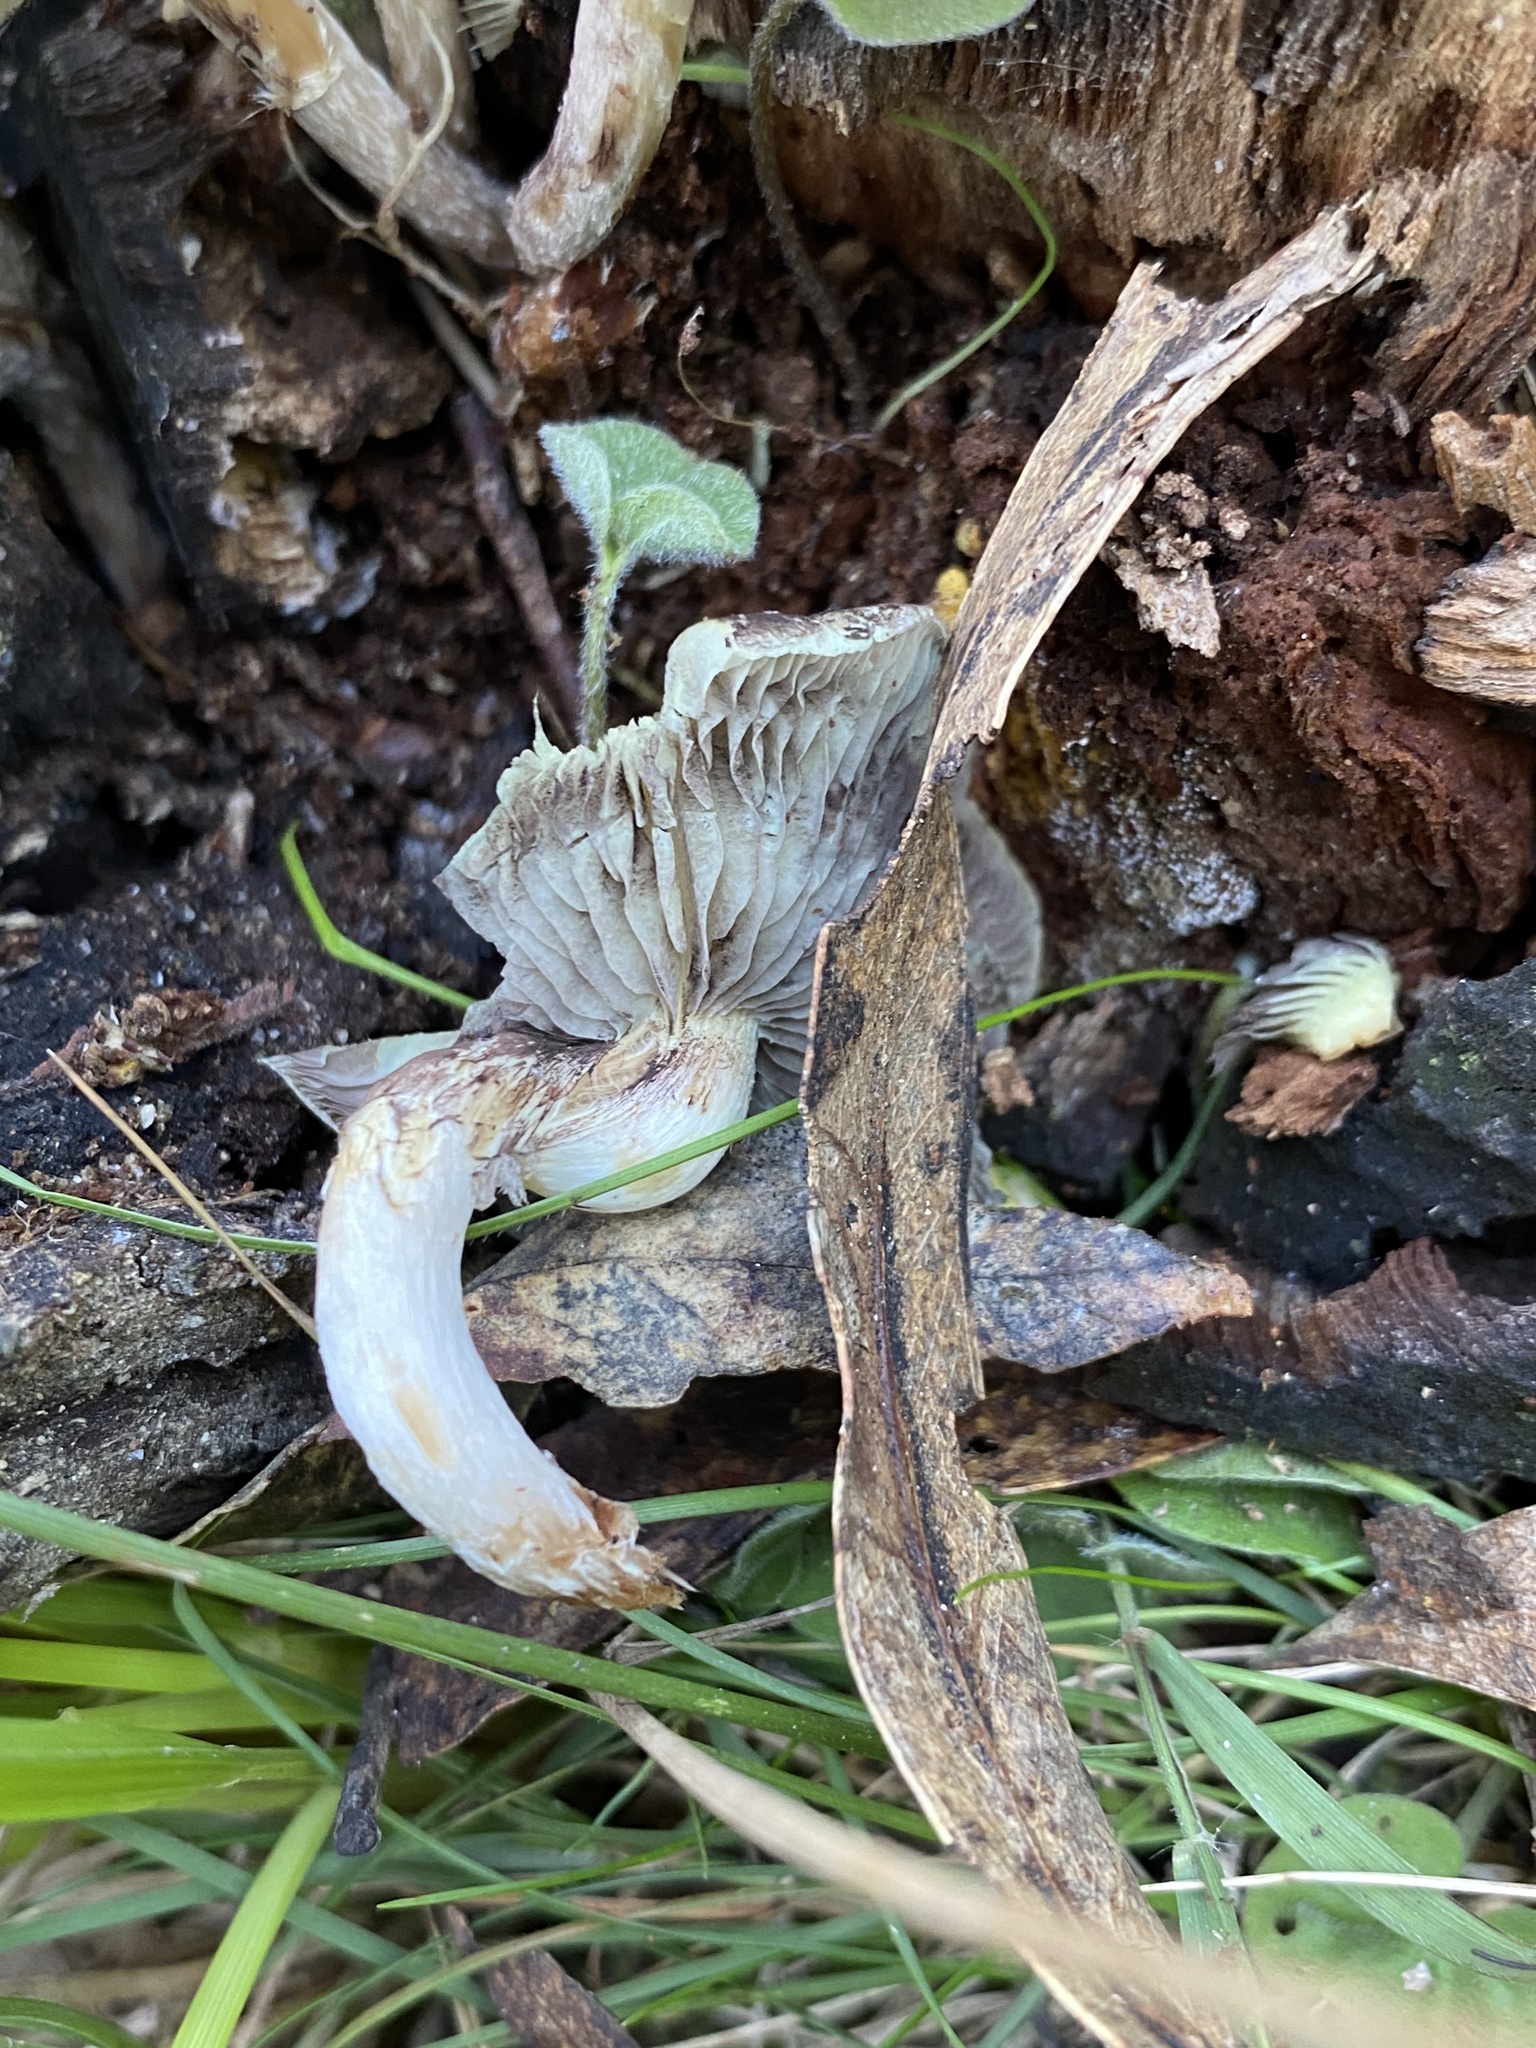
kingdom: Fungi
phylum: Basidiomycota
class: Agaricomycetes
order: Agaricales
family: Strophariaceae
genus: Hypholoma
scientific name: Hypholoma fasciculare
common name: Sulphur tuft
